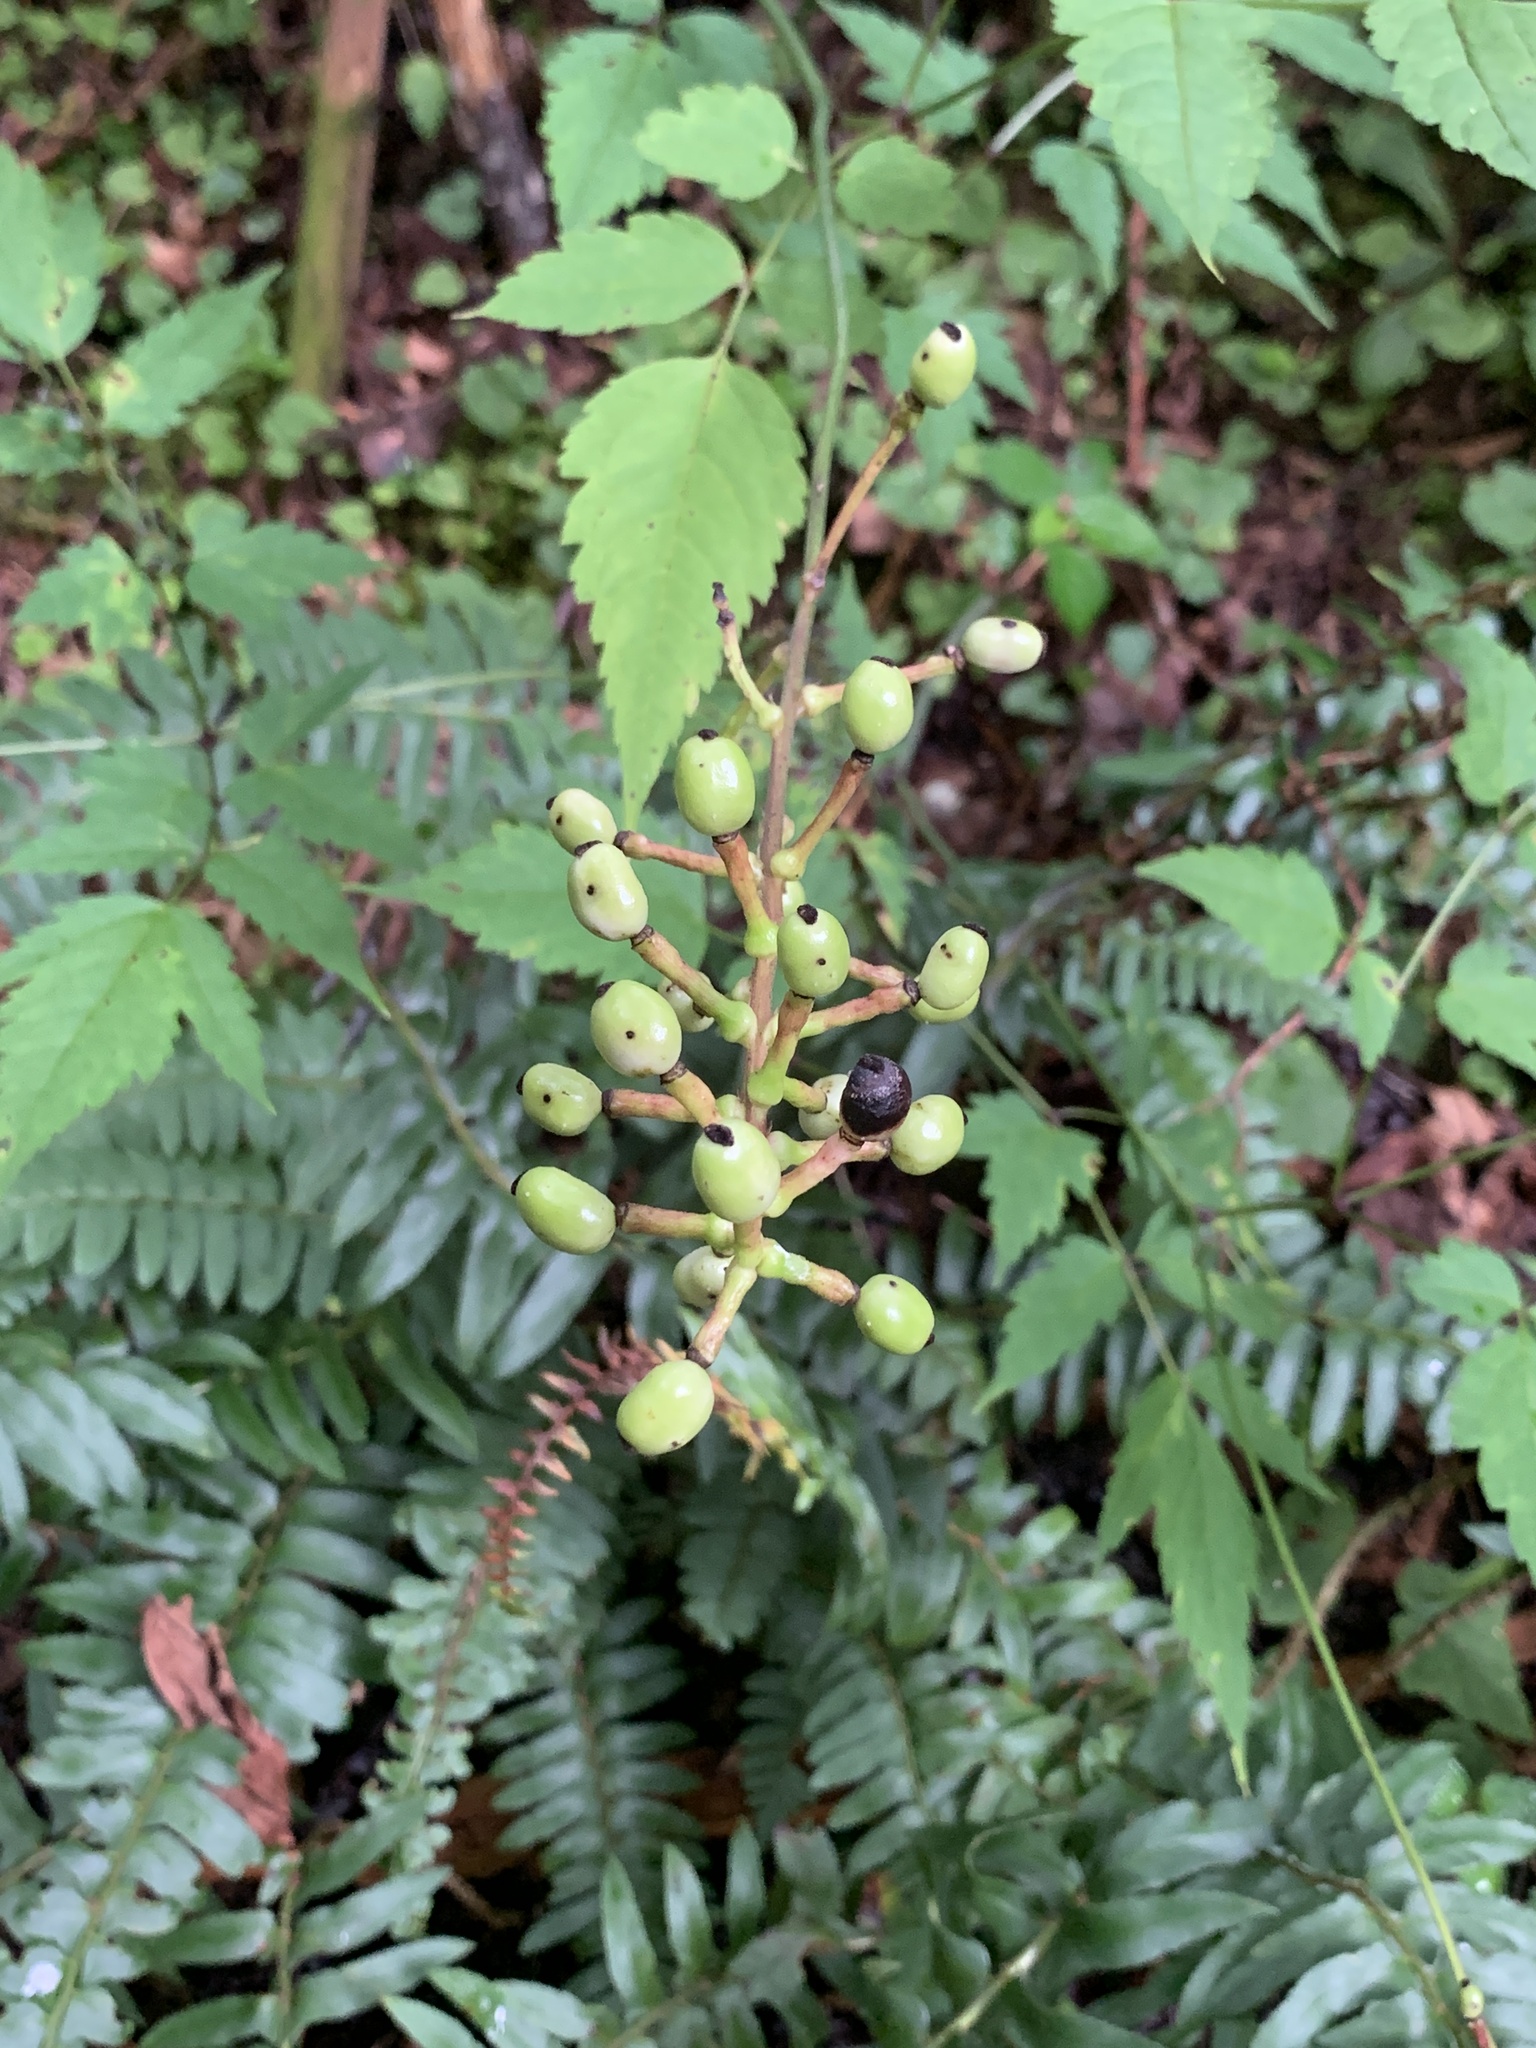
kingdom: Plantae
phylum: Tracheophyta
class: Magnoliopsida
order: Ranunculales
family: Ranunculaceae
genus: Actaea
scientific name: Actaea pachypoda
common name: Doll's-eyes
